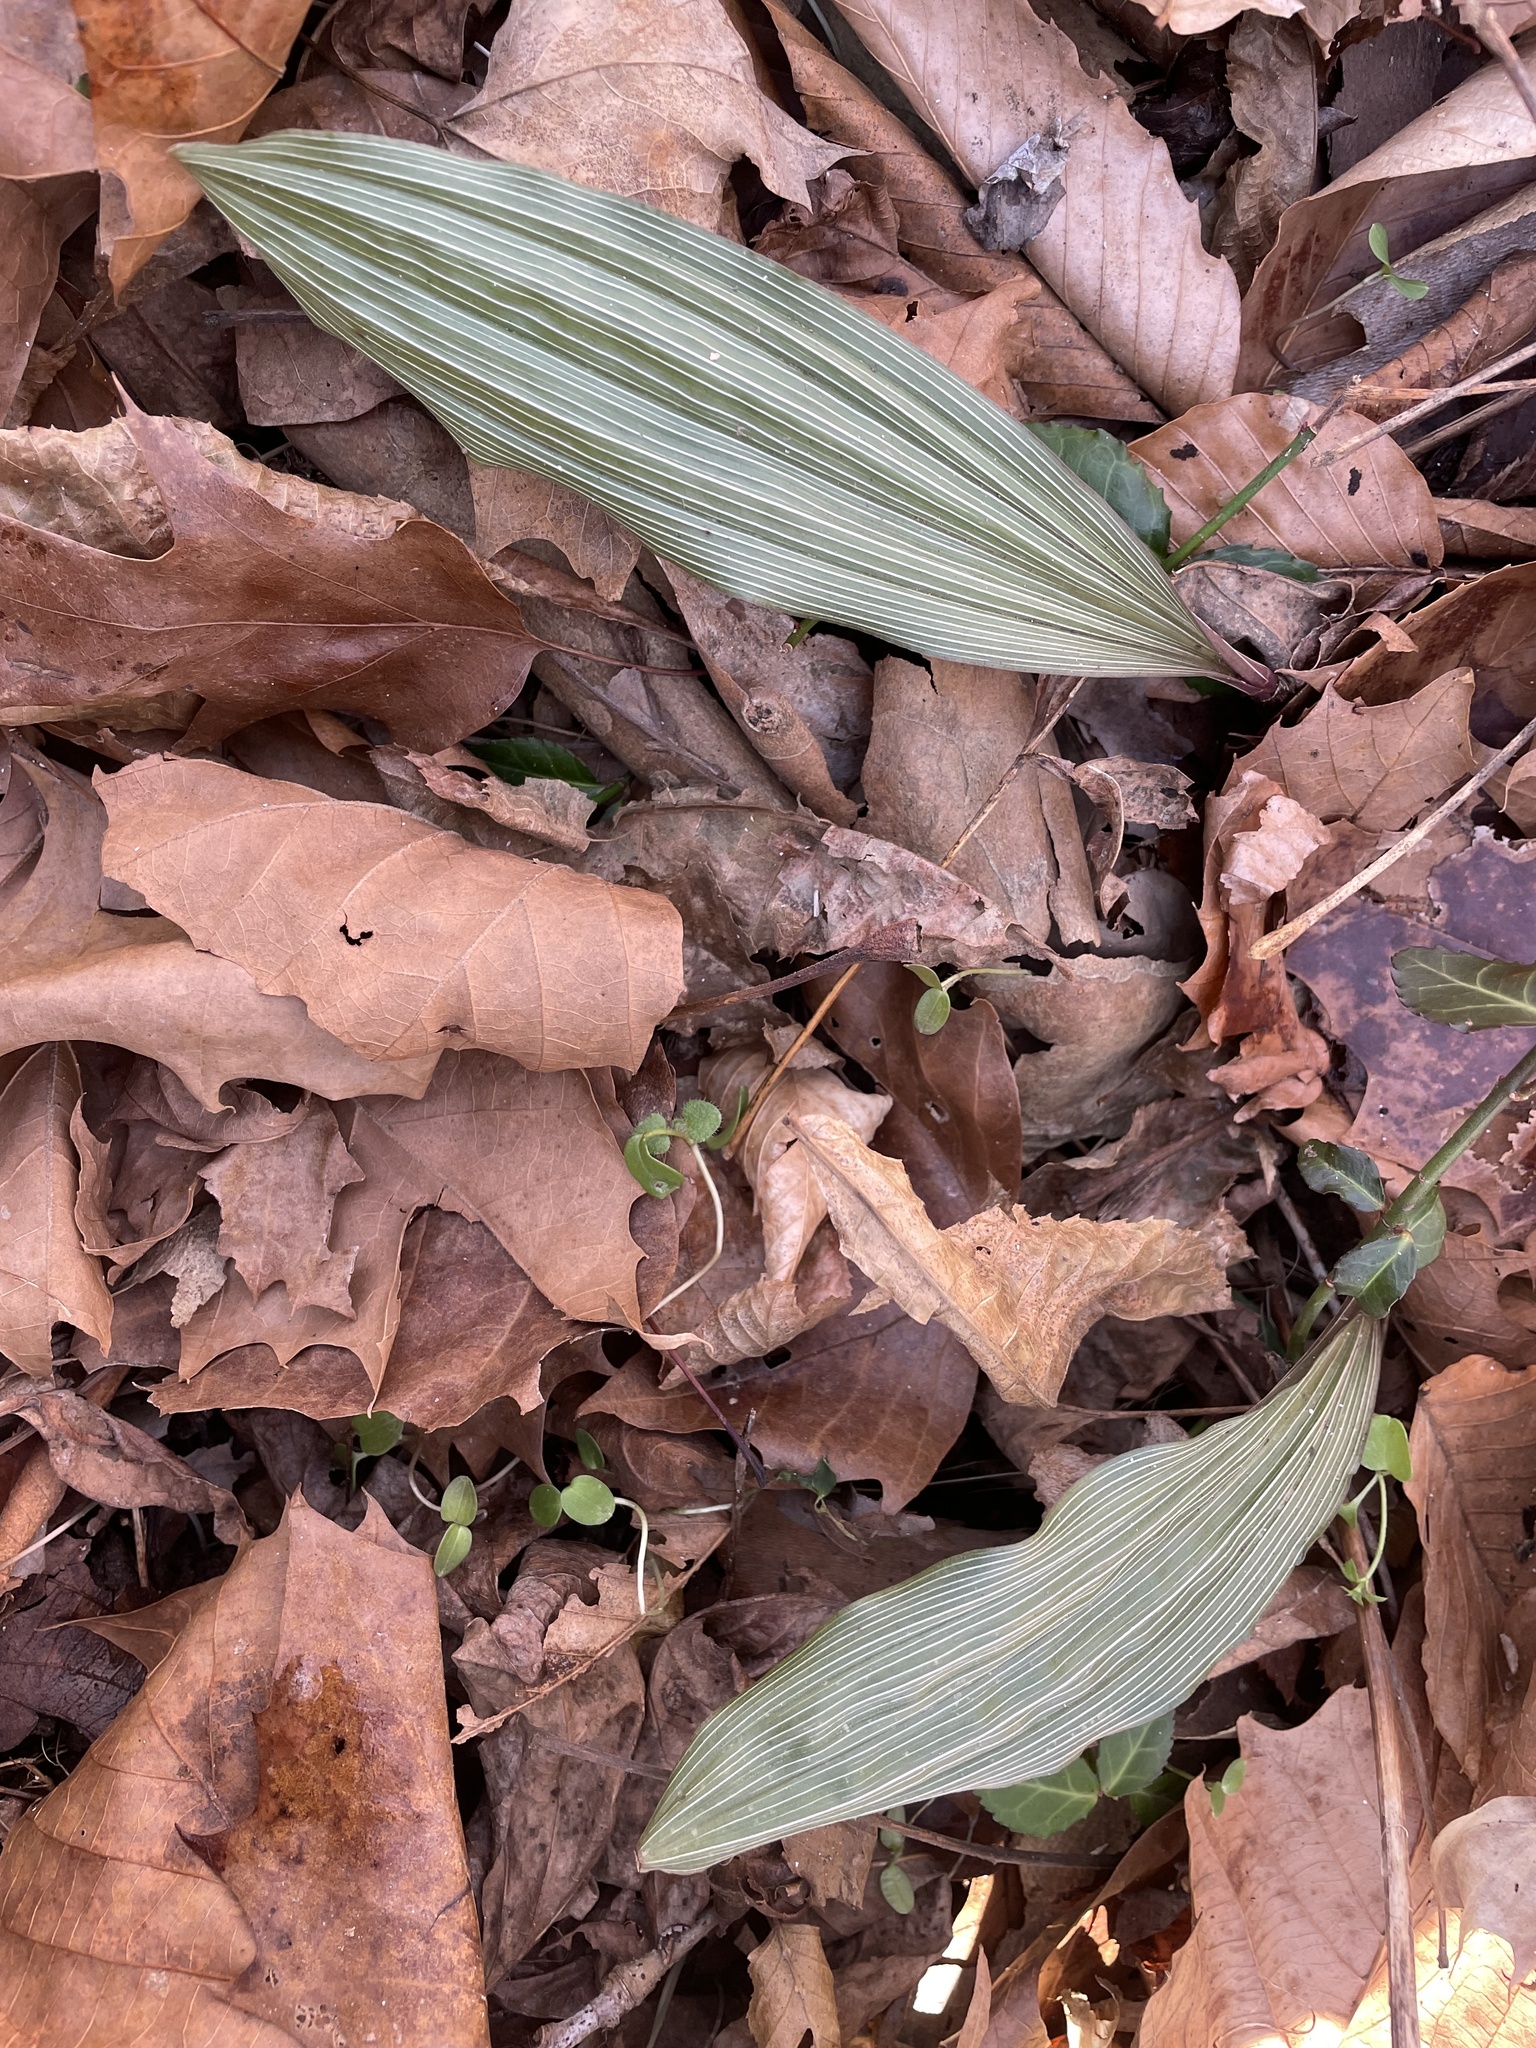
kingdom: Plantae
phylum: Tracheophyta
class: Liliopsida
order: Asparagales
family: Orchidaceae
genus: Aplectrum
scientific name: Aplectrum hyemale
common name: Adam-and-eve
